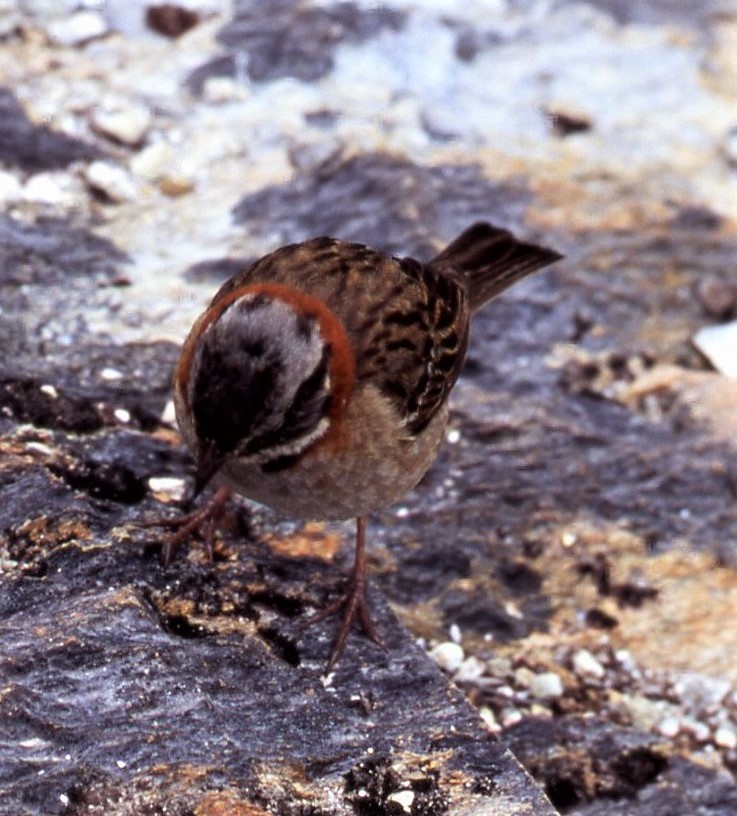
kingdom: Animalia
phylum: Chordata
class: Aves
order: Passeriformes
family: Passerellidae
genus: Zonotrichia
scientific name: Zonotrichia capensis
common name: Rufous-collared sparrow
